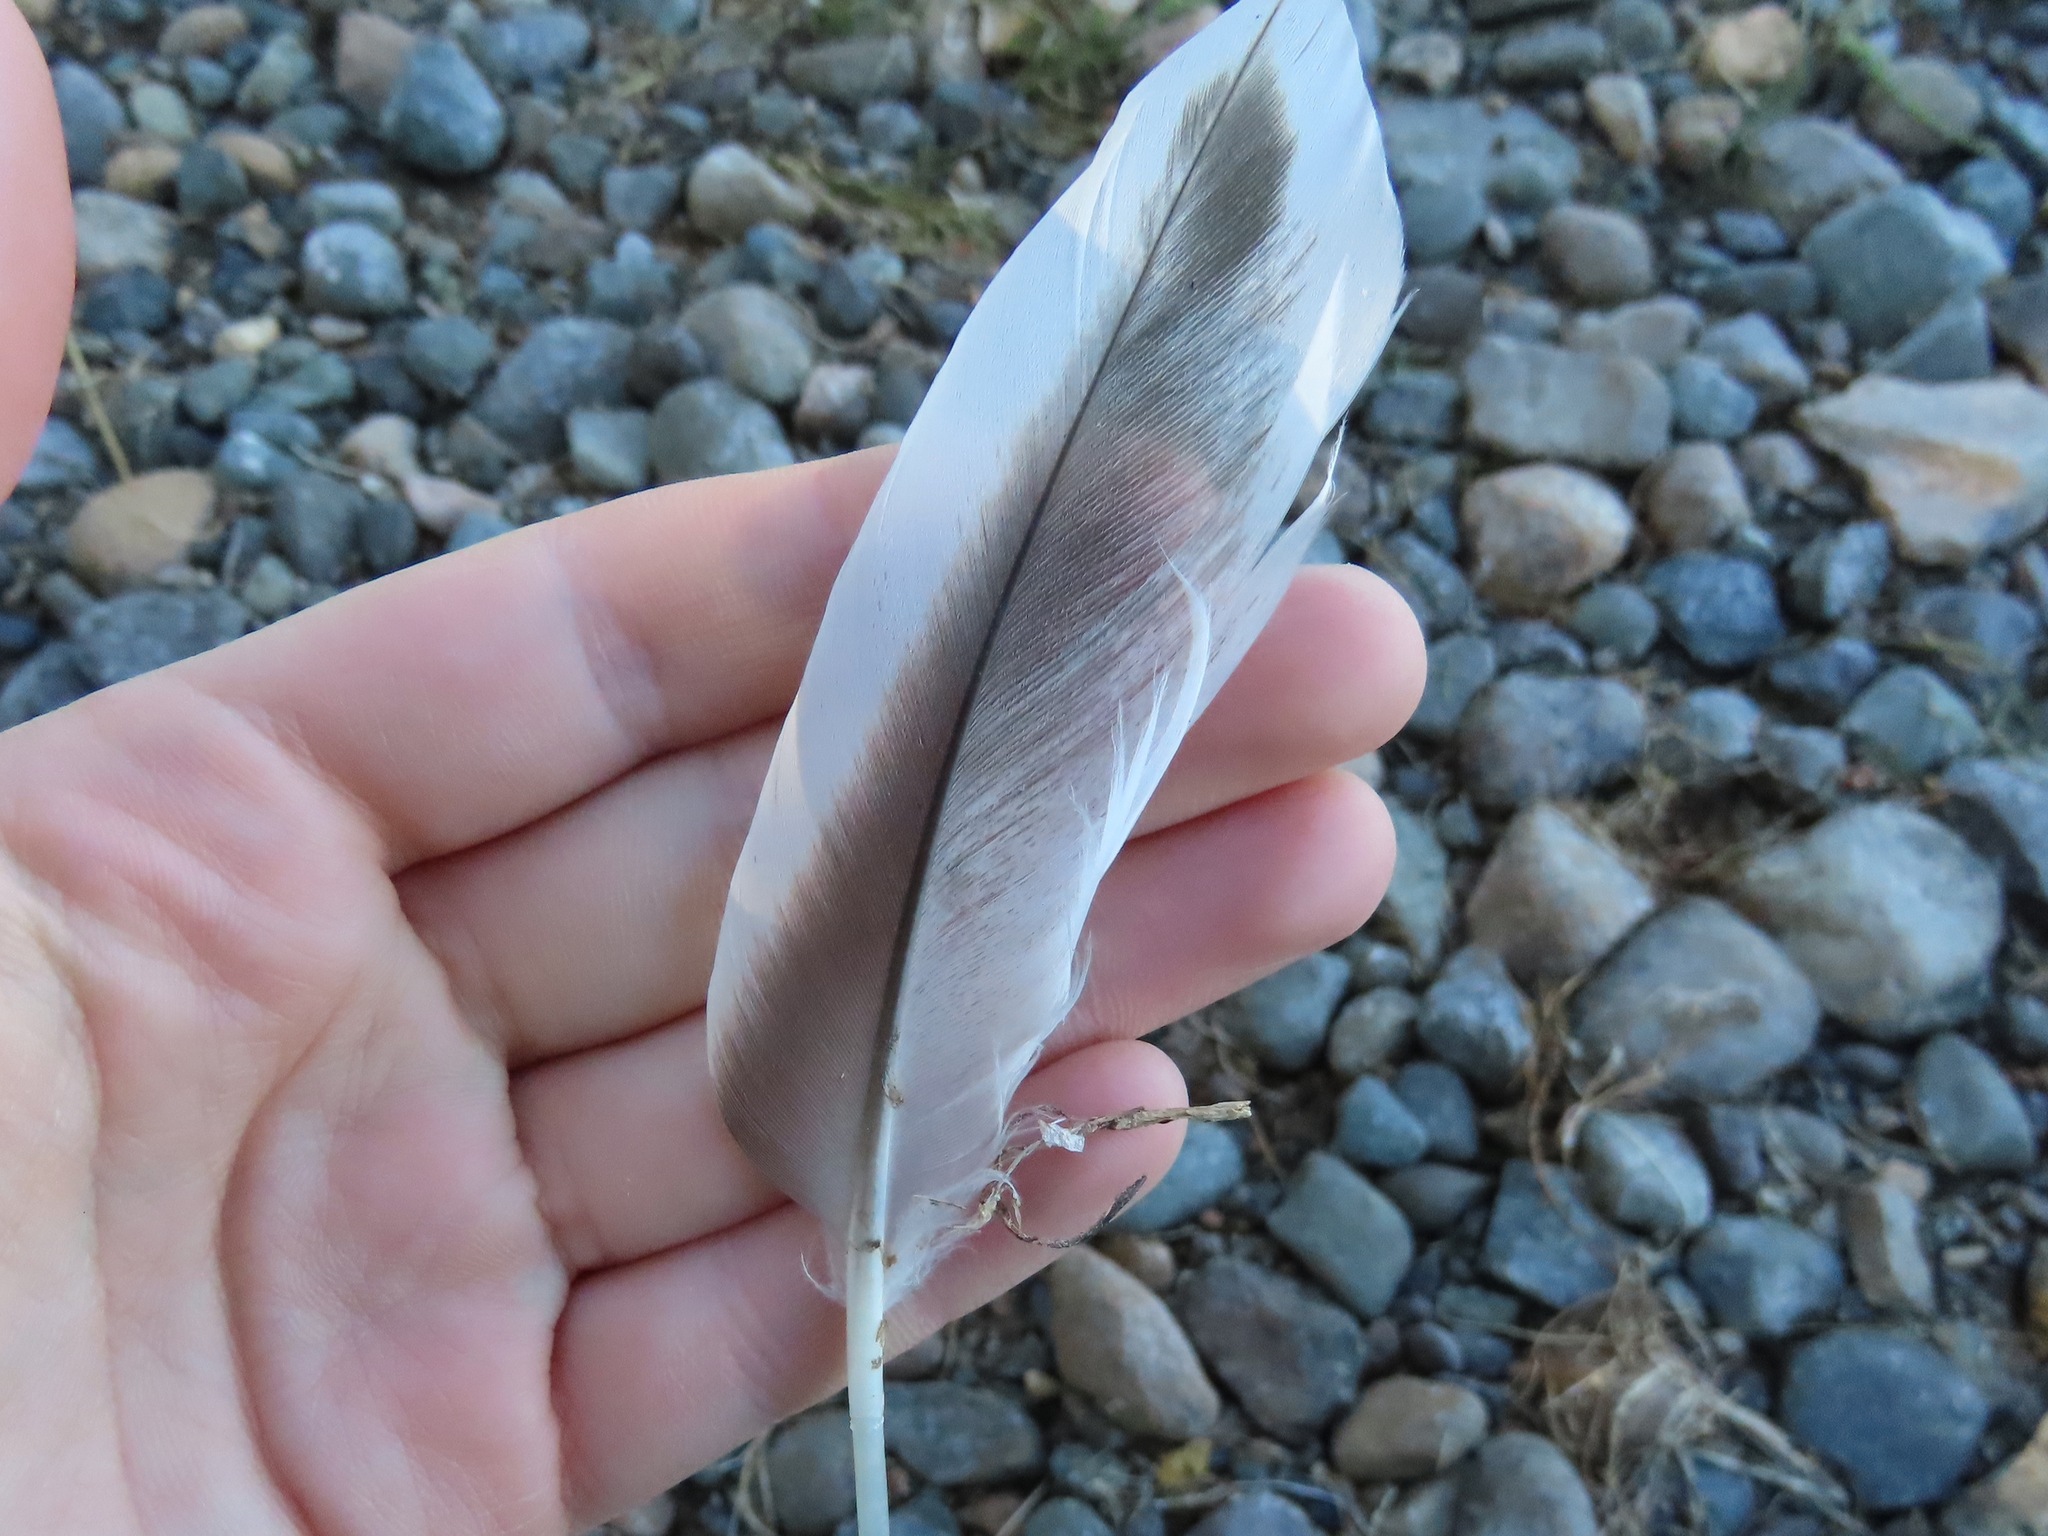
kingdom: Animalia
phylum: Chordata
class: Aves
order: Anseriformes
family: Anatidae
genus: Anas
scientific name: Anas platyrhynchos
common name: Mallard
